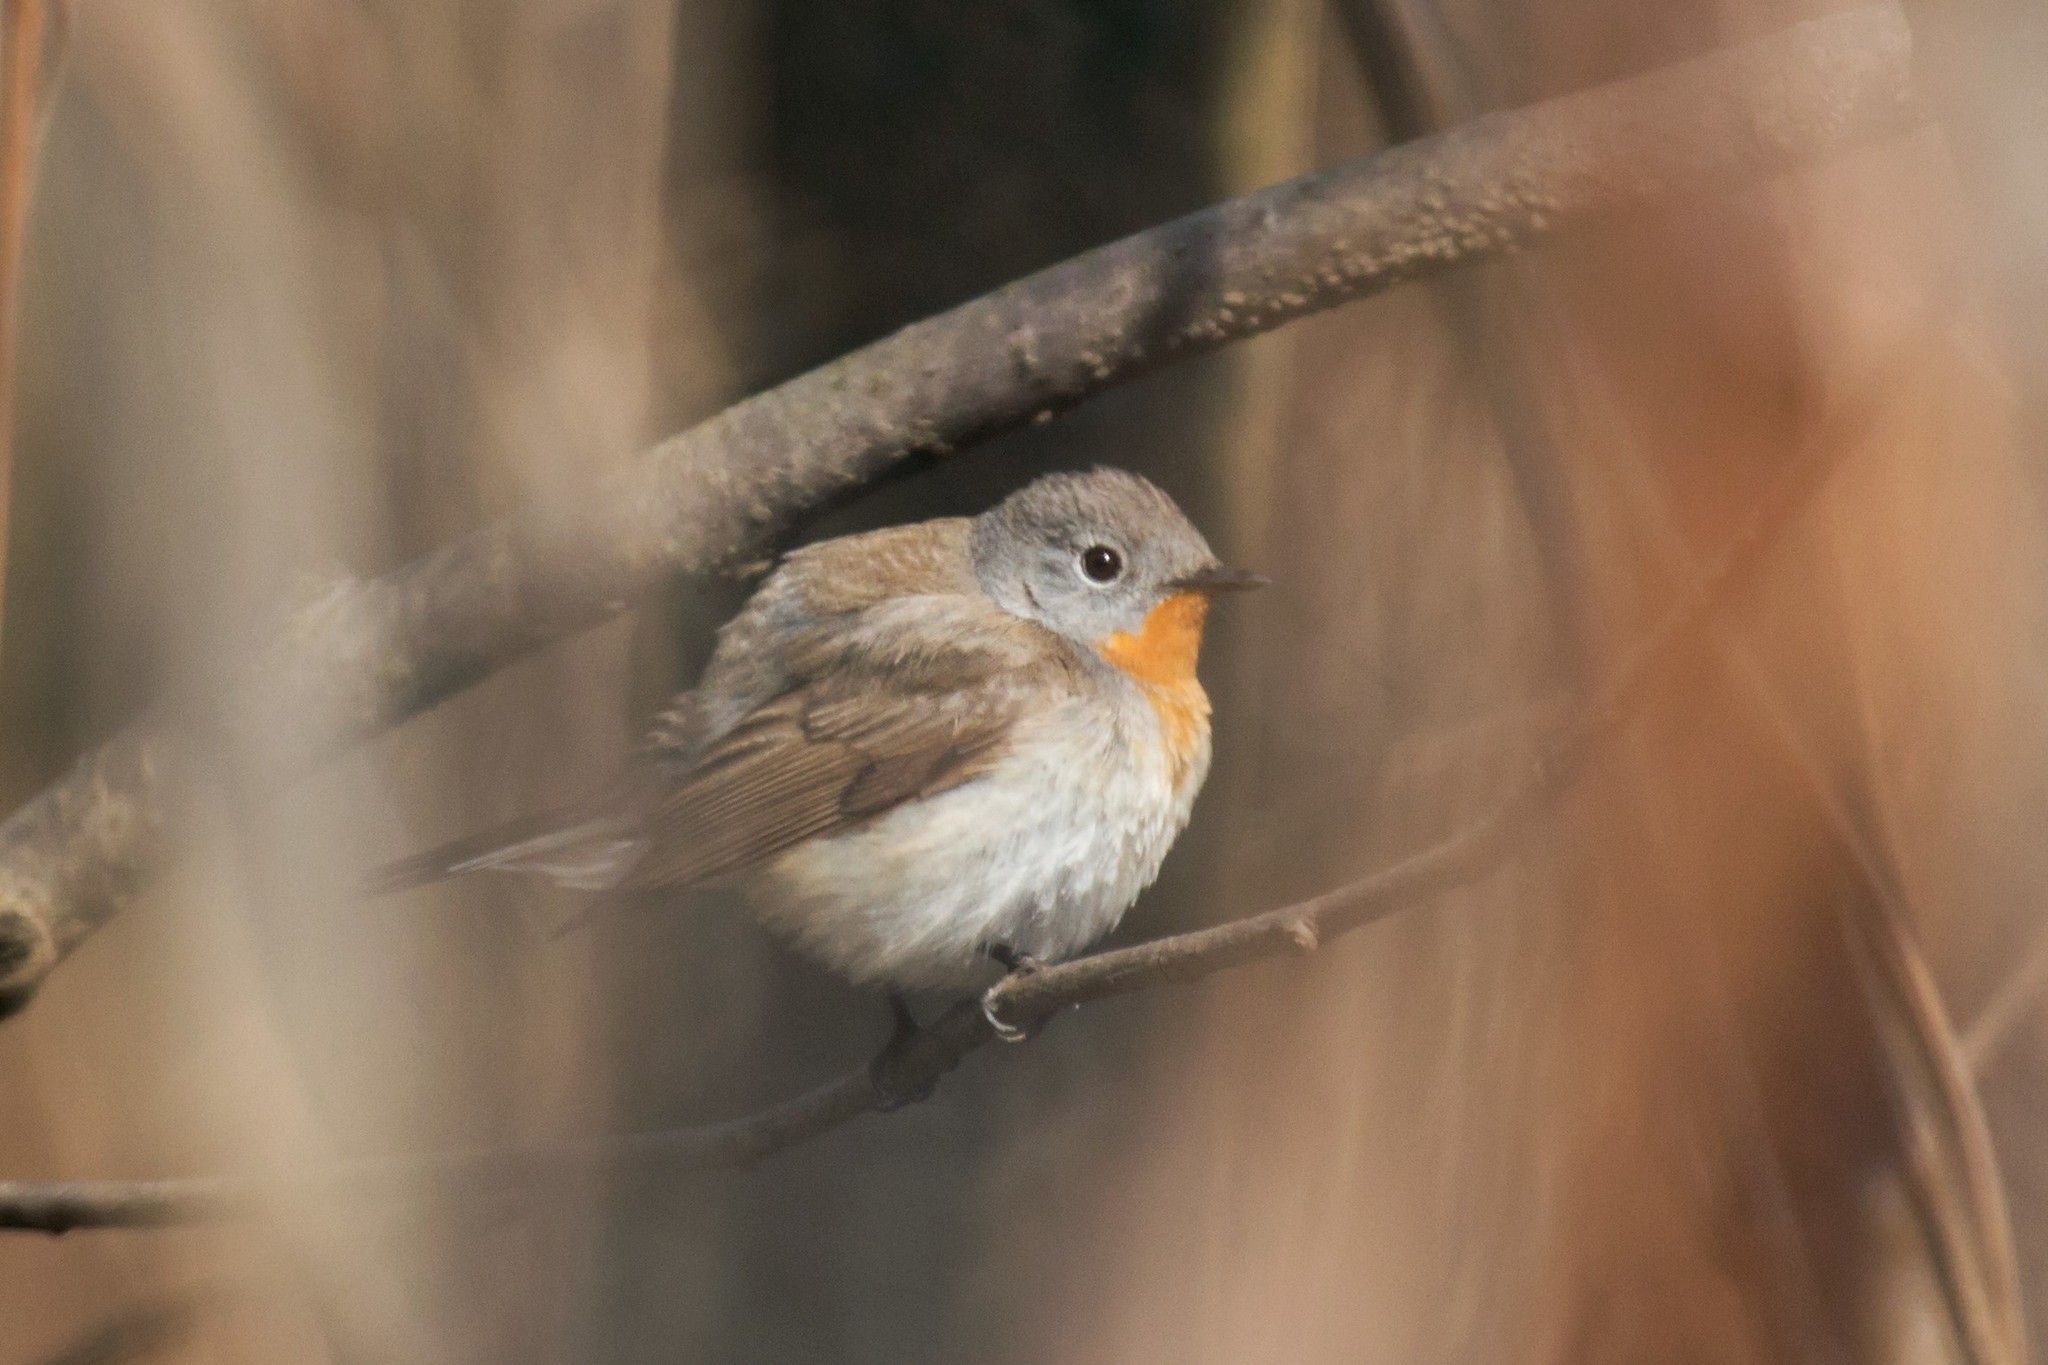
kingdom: Animalia
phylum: Chordata
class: Aves
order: Passeriformes
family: Muscicapidae
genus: Ficedula
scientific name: Ficedula parva
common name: Red-breasted flycatcher
